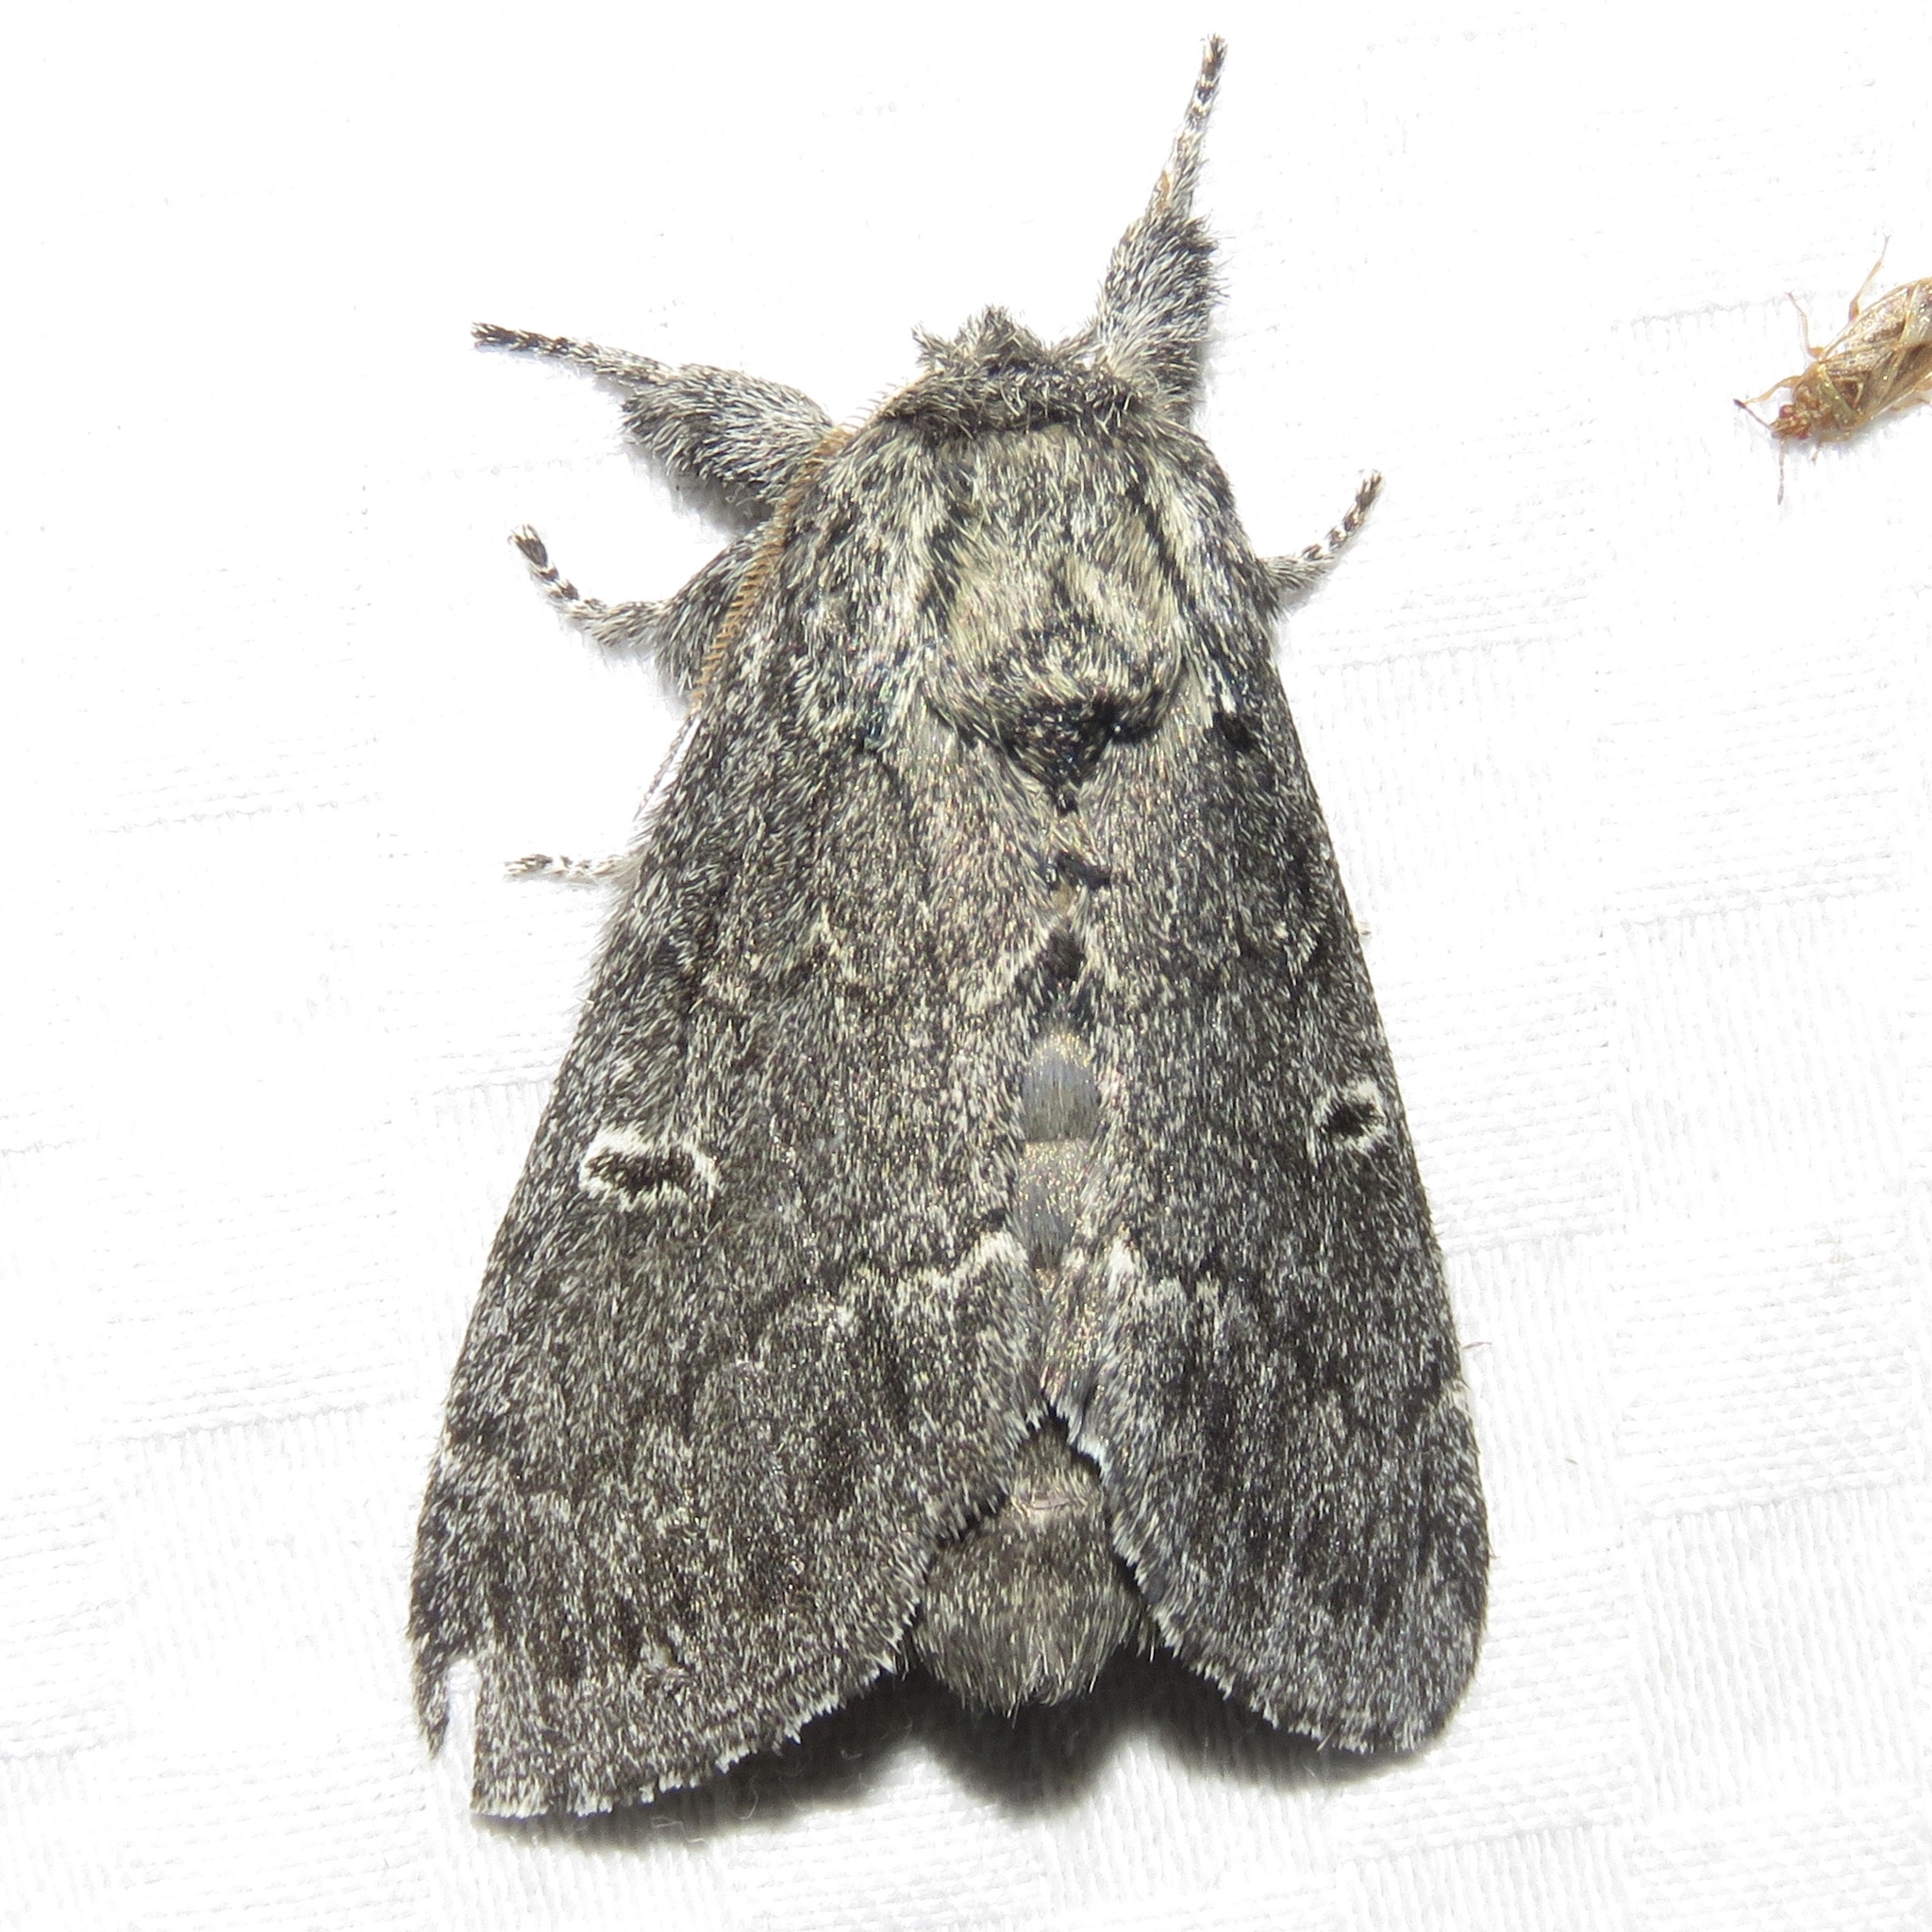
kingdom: Animalia
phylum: Arthropoda
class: Insecta
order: Lepidoptera
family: Notodontidae
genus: Notodonta
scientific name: Notodonta torva
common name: Large dark prominent
